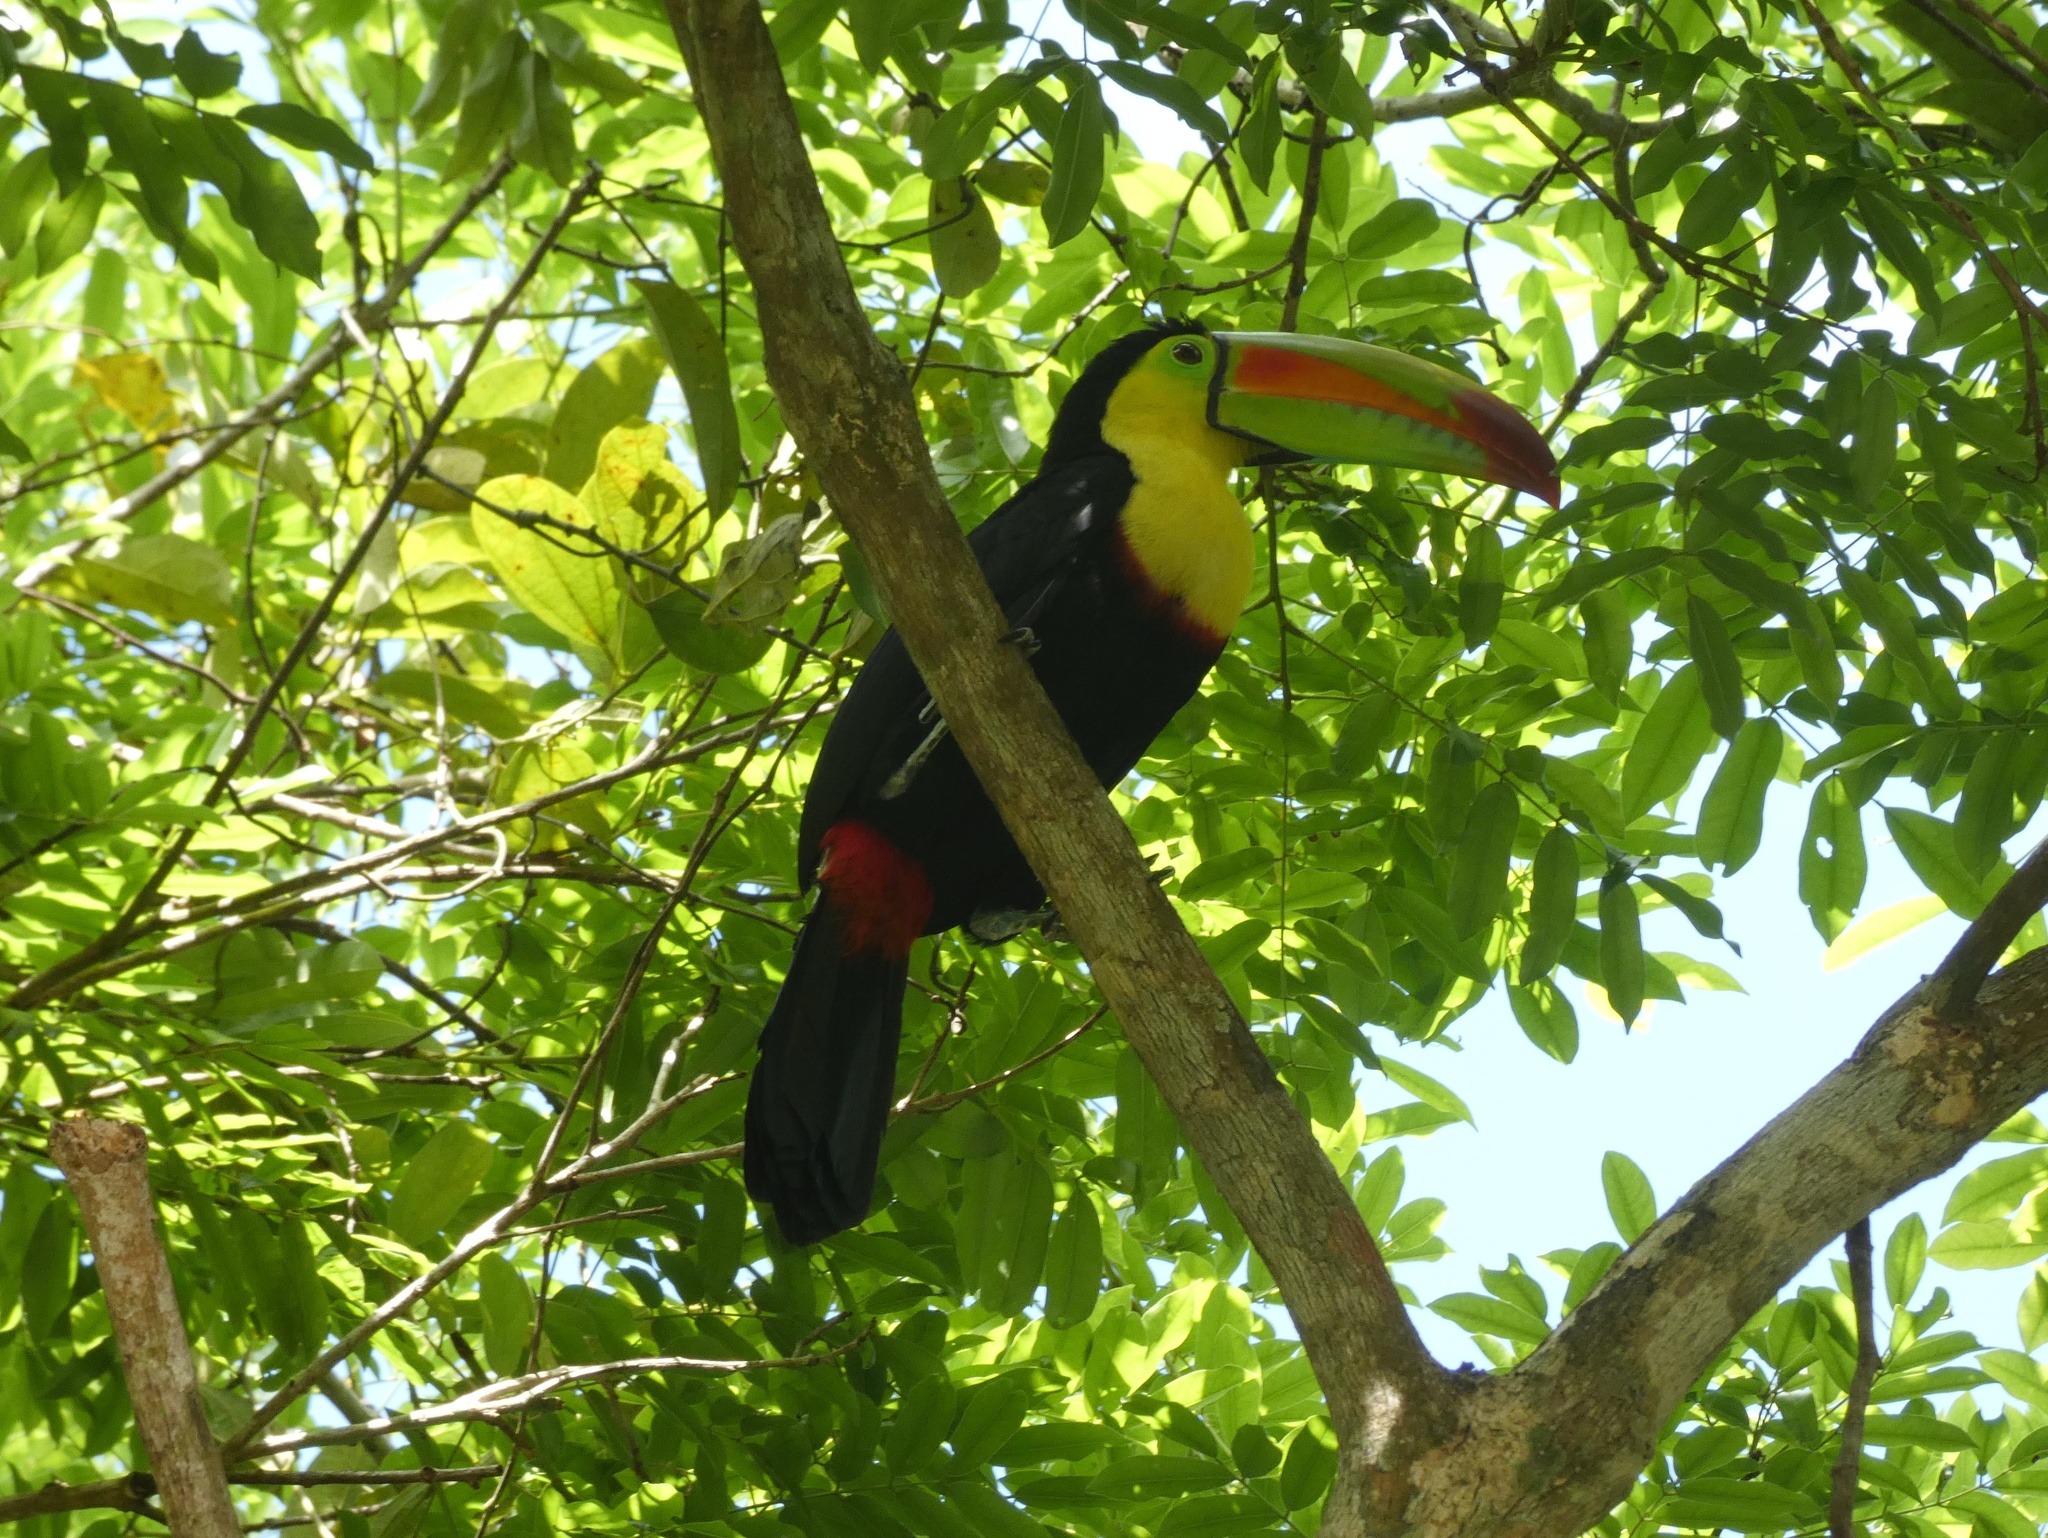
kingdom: Animalia
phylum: Chordata
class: Aves
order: Piciformes
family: Ramphastidae
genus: Ramphastos
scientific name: Ramphastos sulfuratus
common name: Keel-billed toucan
